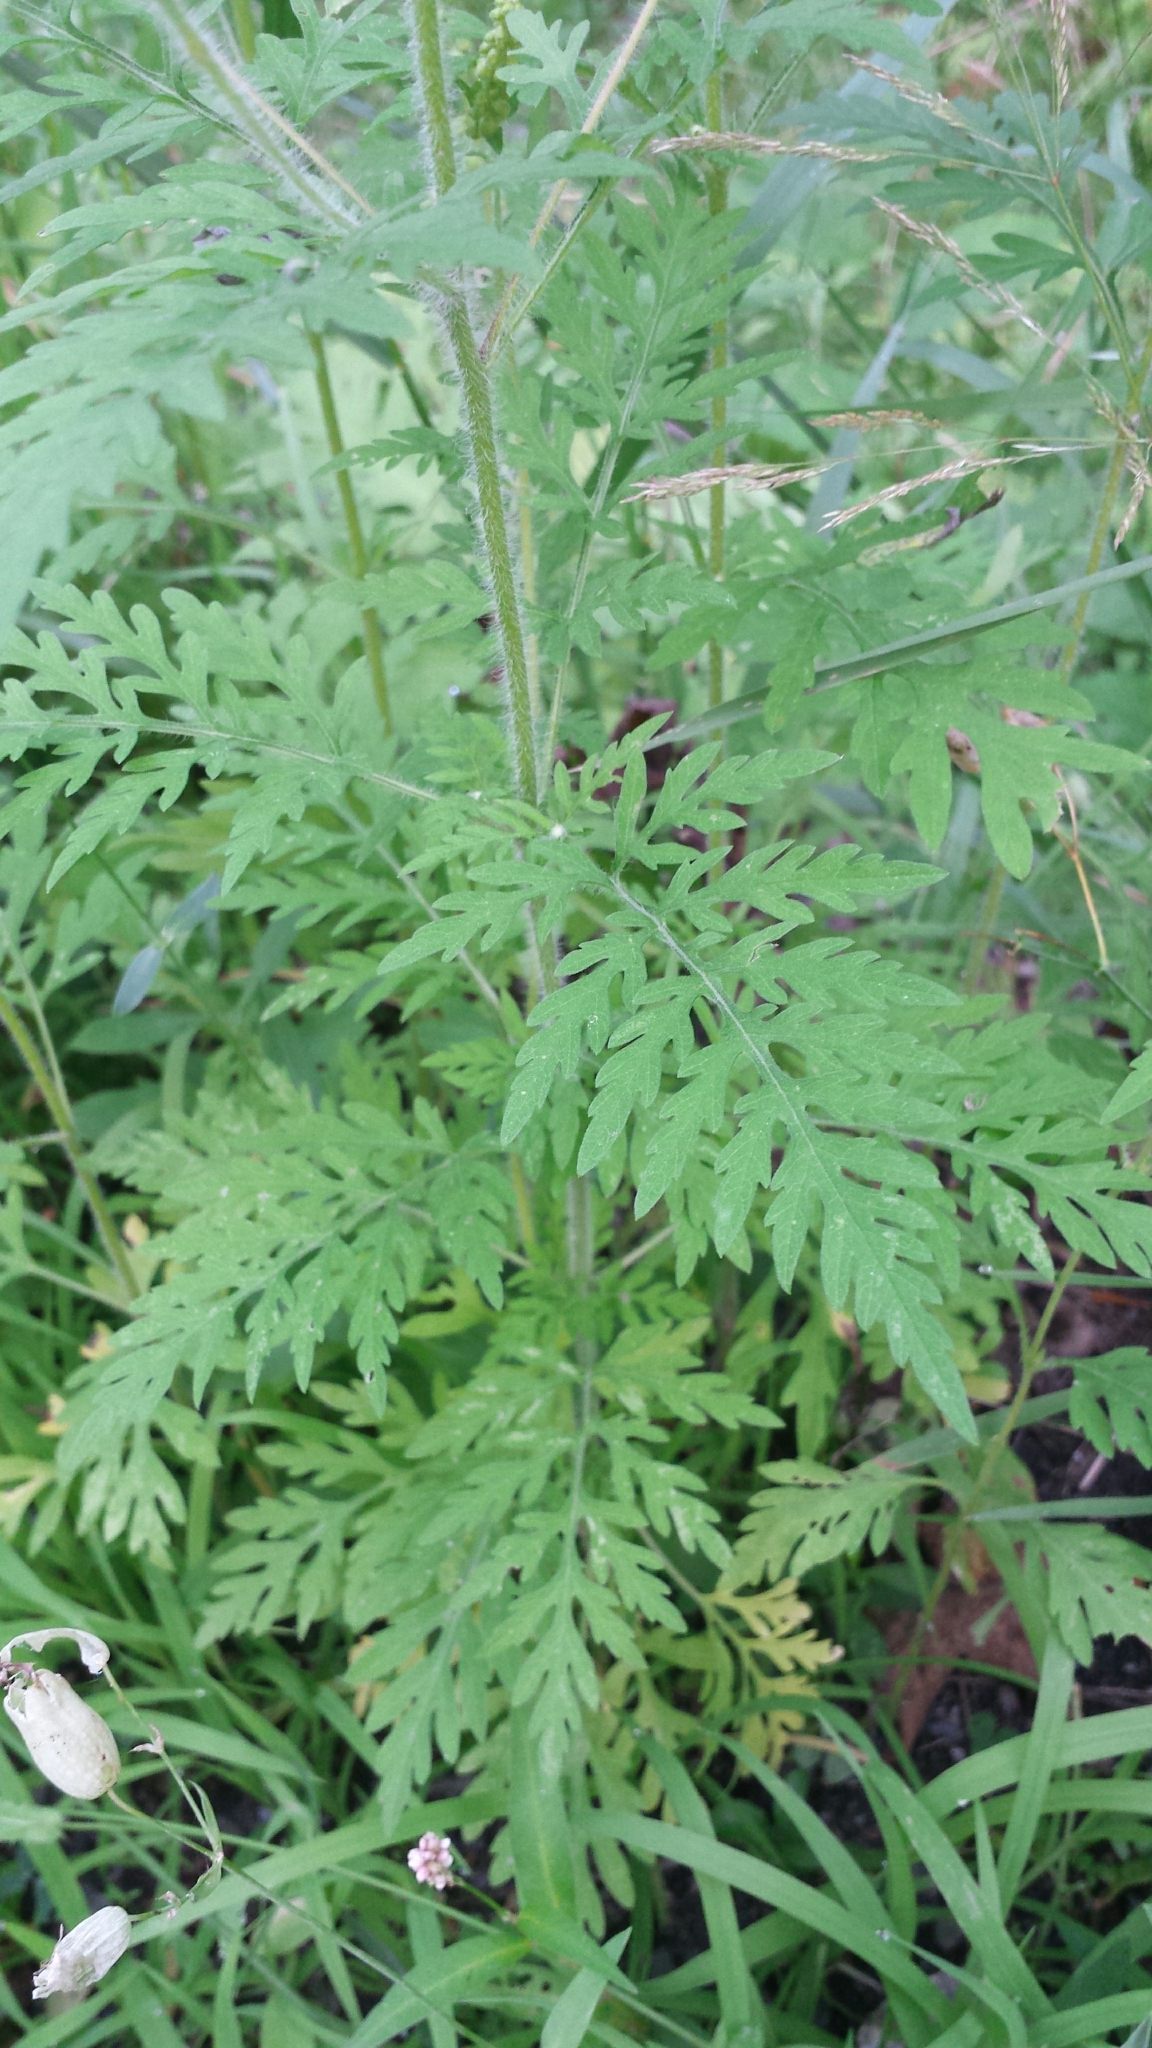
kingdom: Plantae
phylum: Tracheophyta
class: Magnoliopsida
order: Asterales
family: Asteraceae
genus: Ambrosia
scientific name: Ambrosia artemisiifolia
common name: Annual ragweed
